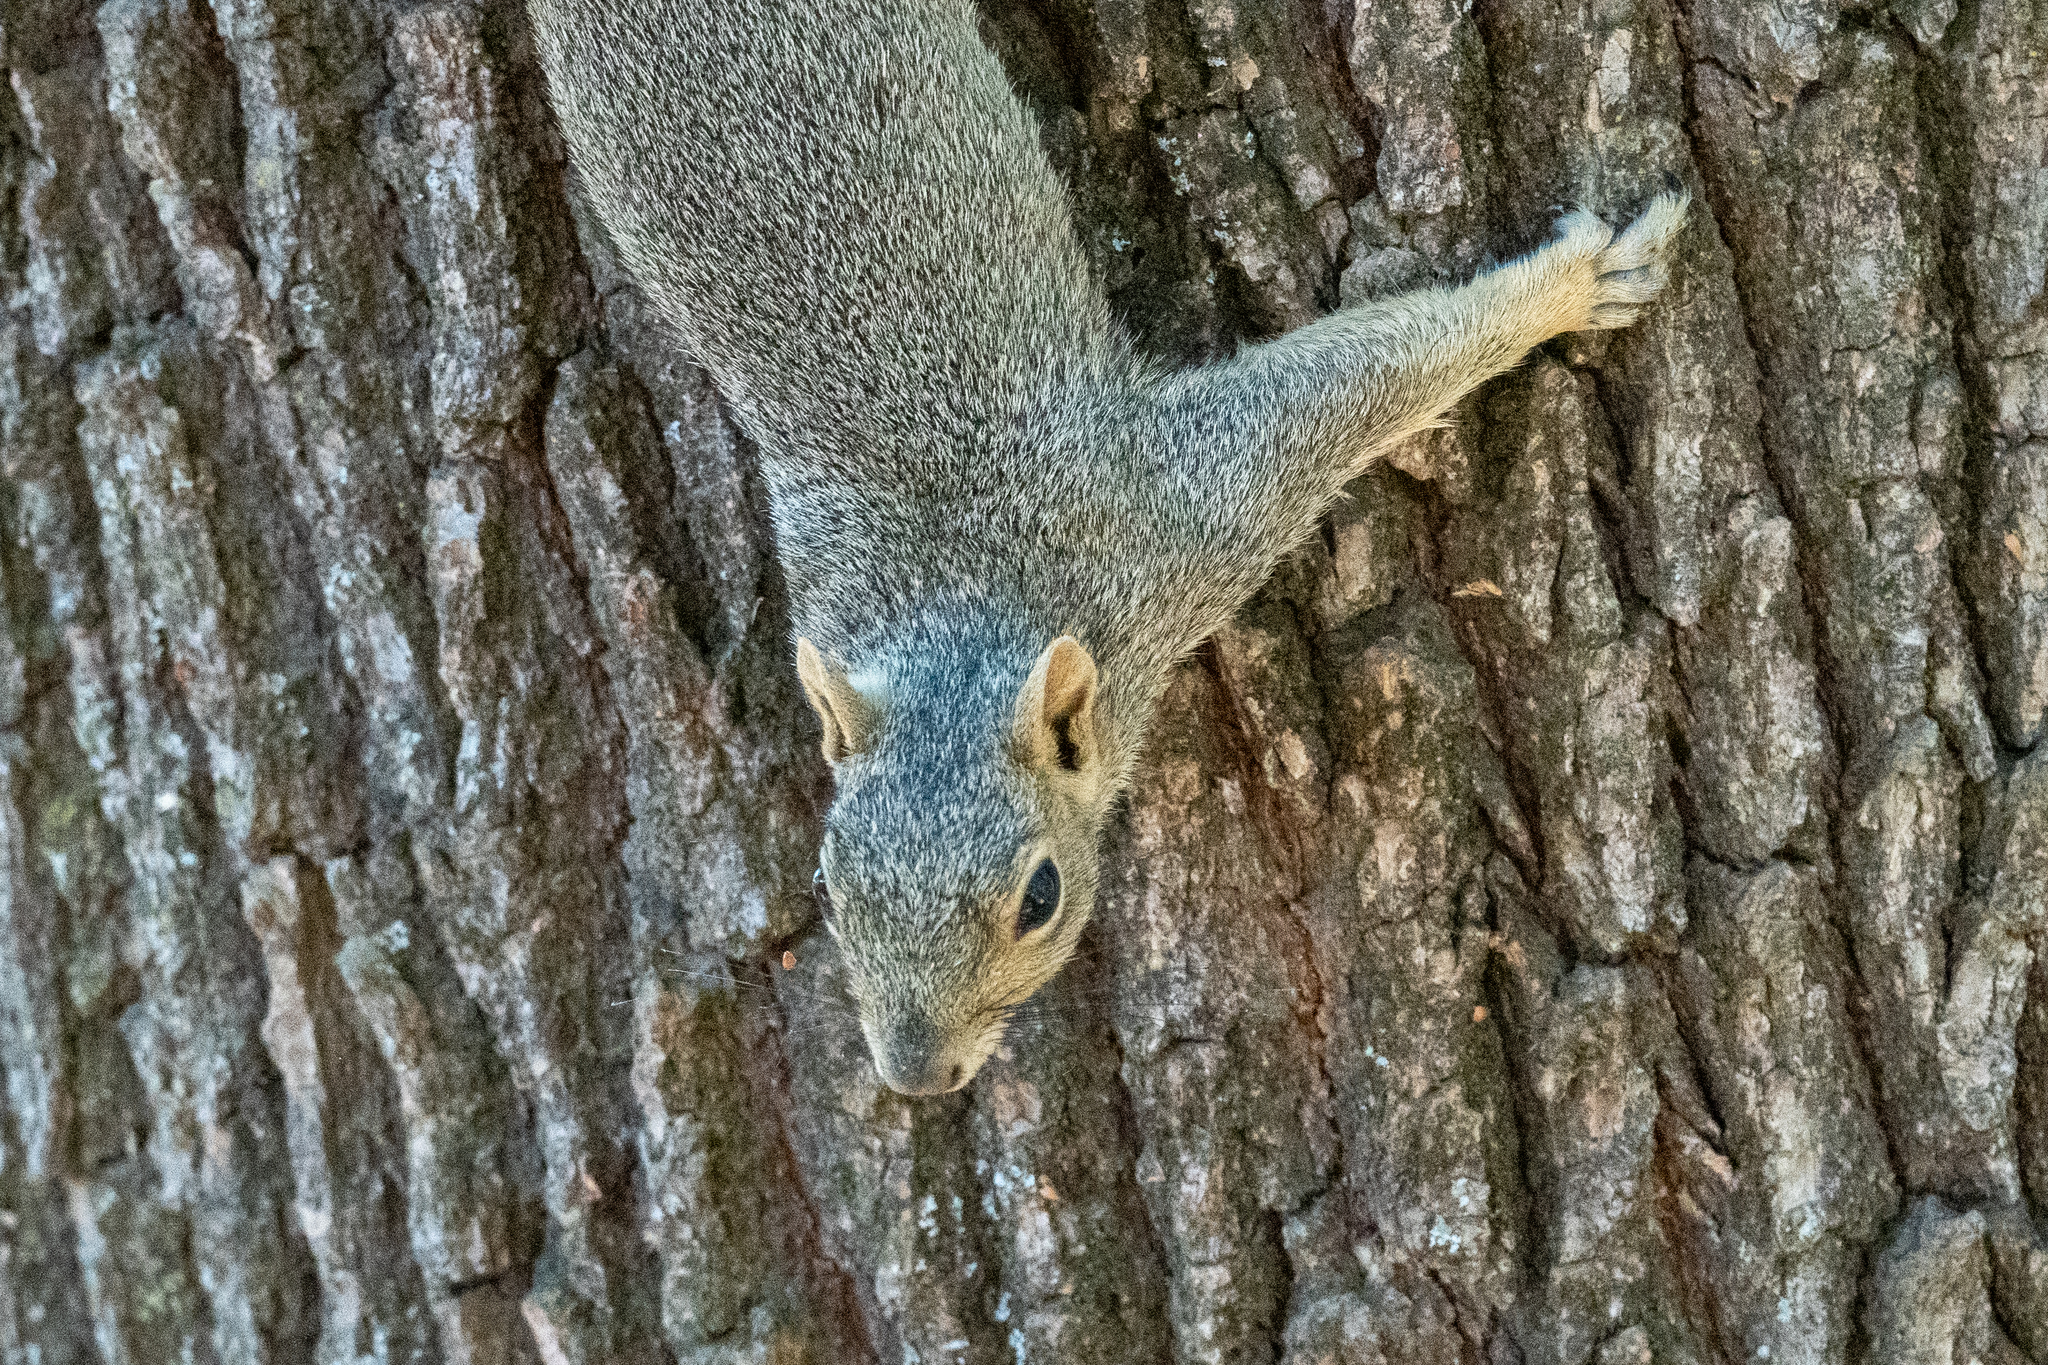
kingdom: Animalia
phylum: Chordata
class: Mammalia
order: Rodentia
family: Sciuridae
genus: Sciurus
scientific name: Sciurus niger
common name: Fox squirrel
